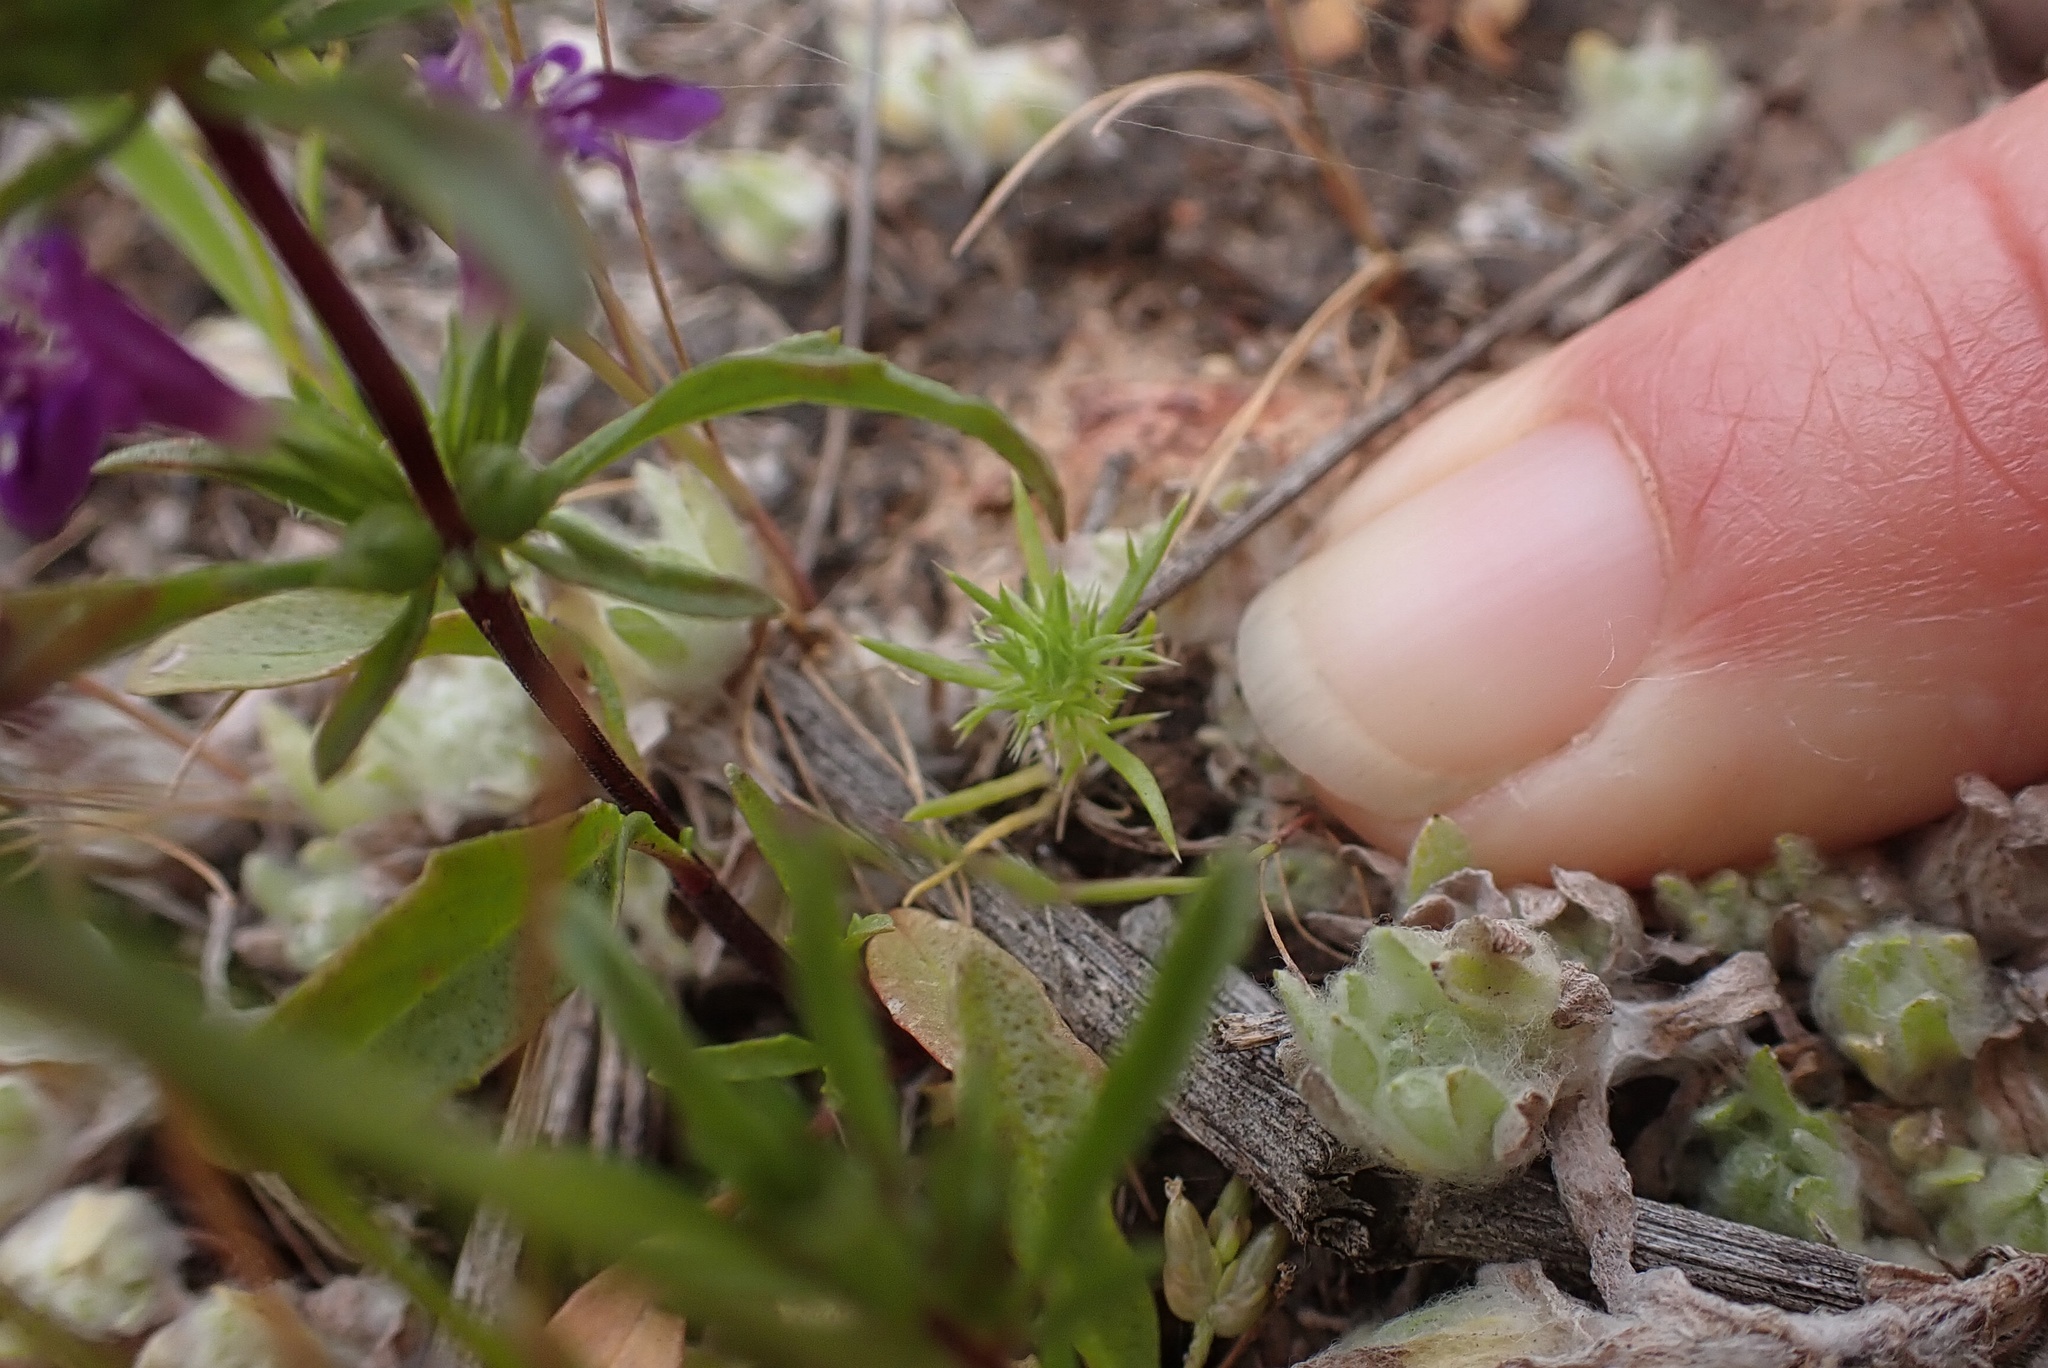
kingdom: Plantae
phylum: Tracheophyta
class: Magnoliopsida
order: Ericales
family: Polemoniaceae
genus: Navarretia
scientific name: Navarretia fossalis
